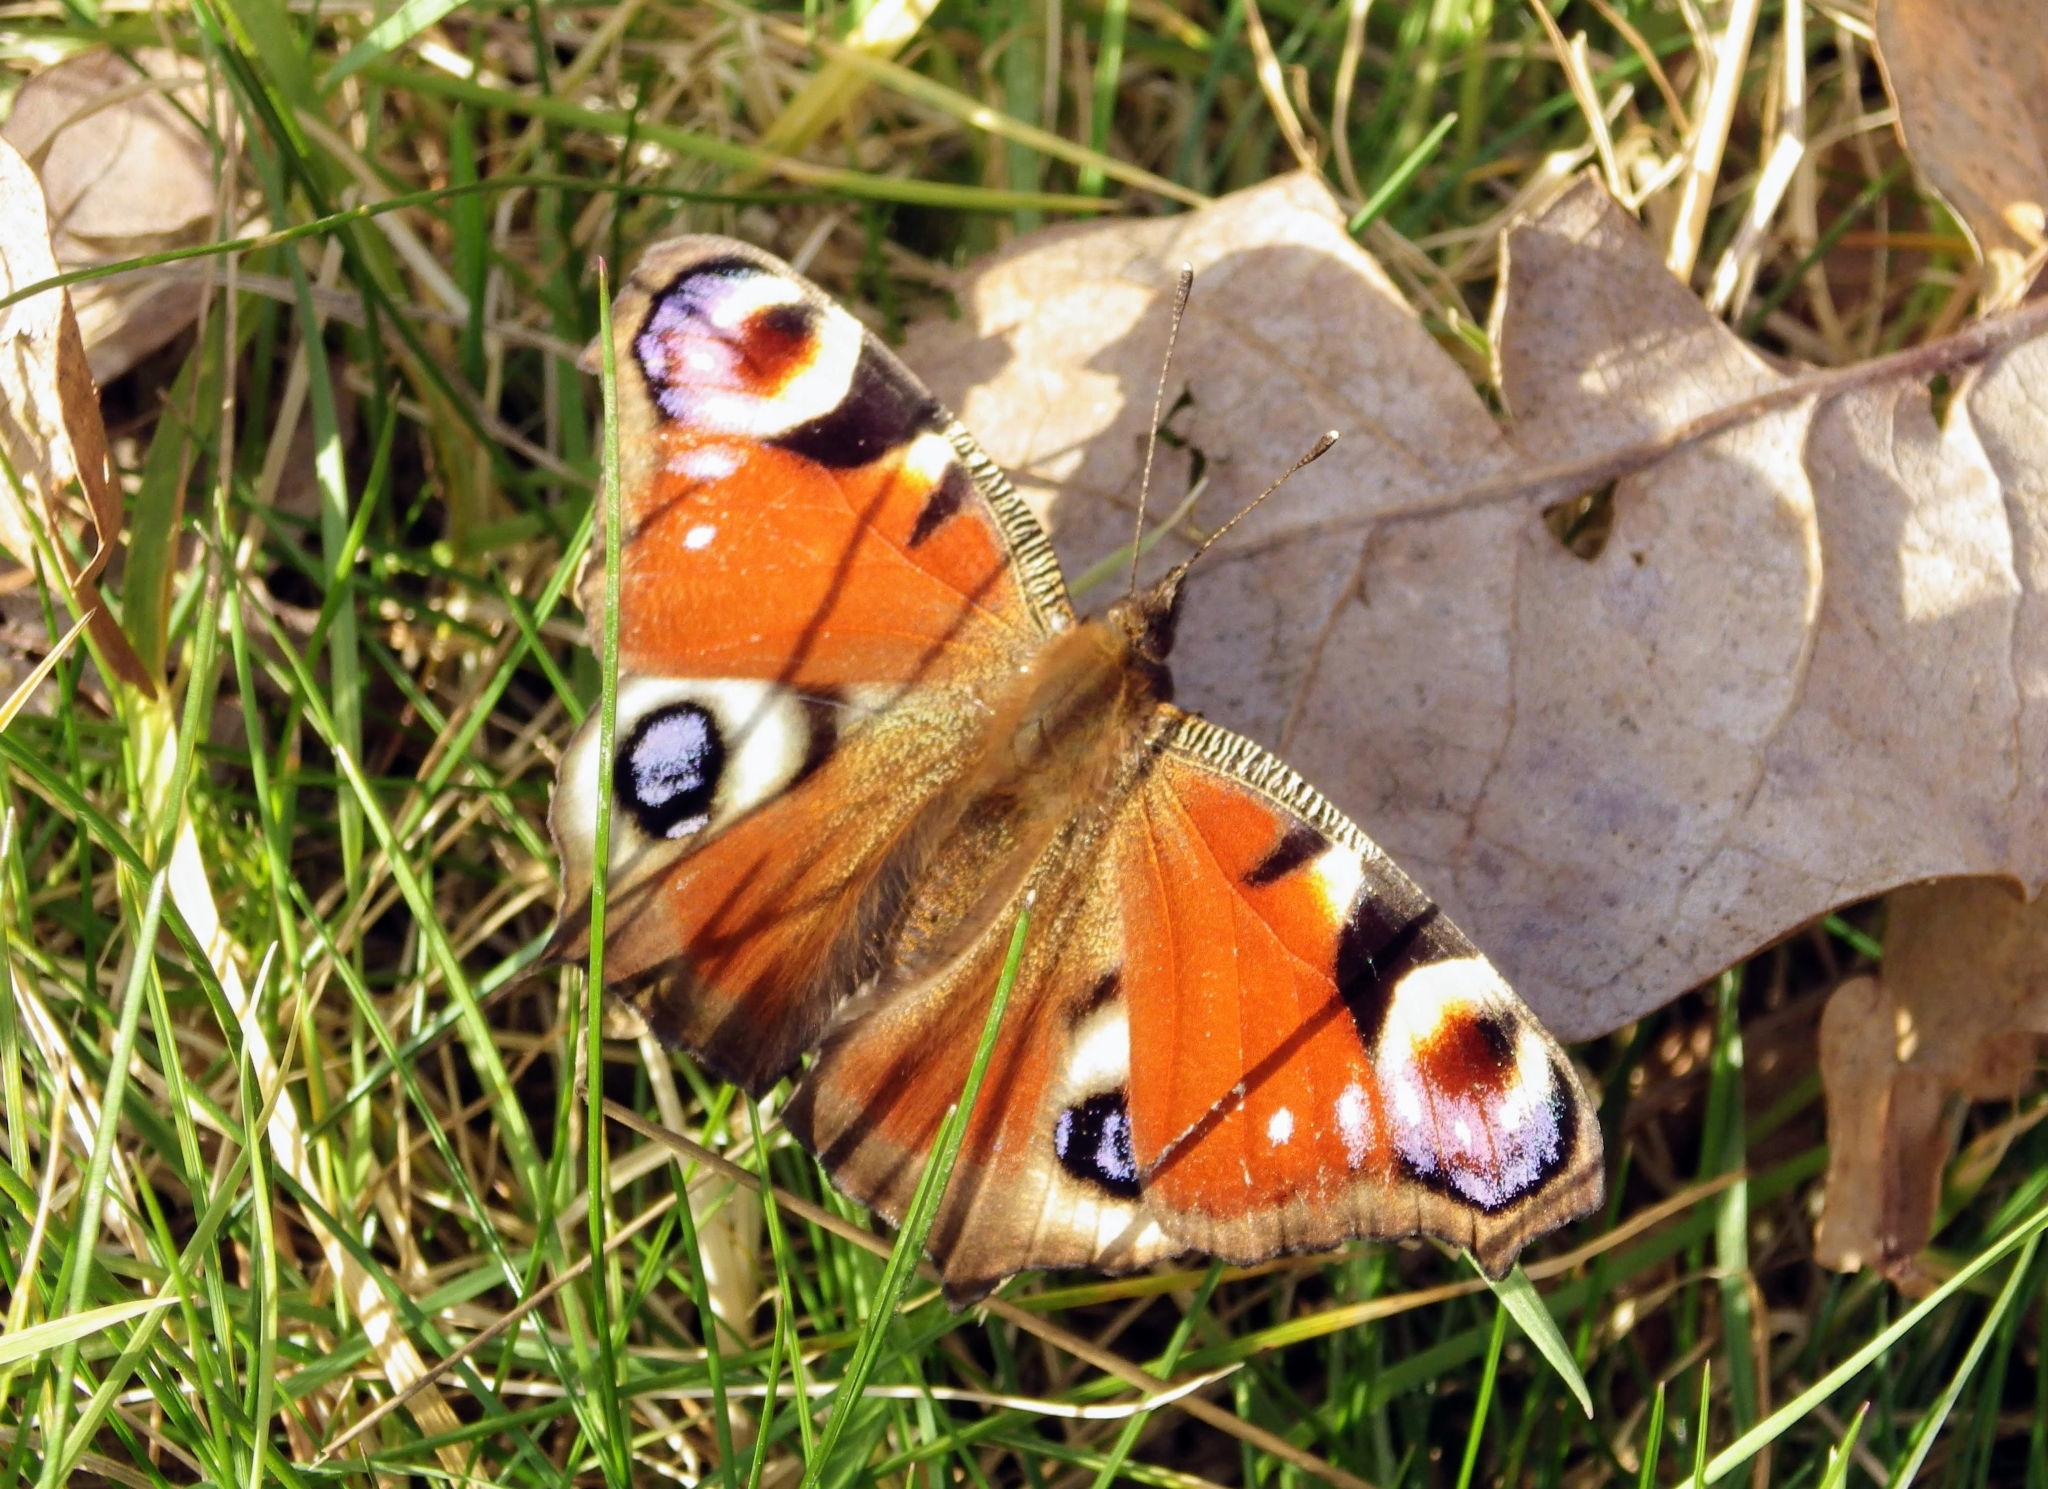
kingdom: Animalia
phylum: Arthropoda
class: Insecta
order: Lepidoptera
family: Nymphalidae
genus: Aglais
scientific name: Aglais io
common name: Peacock
